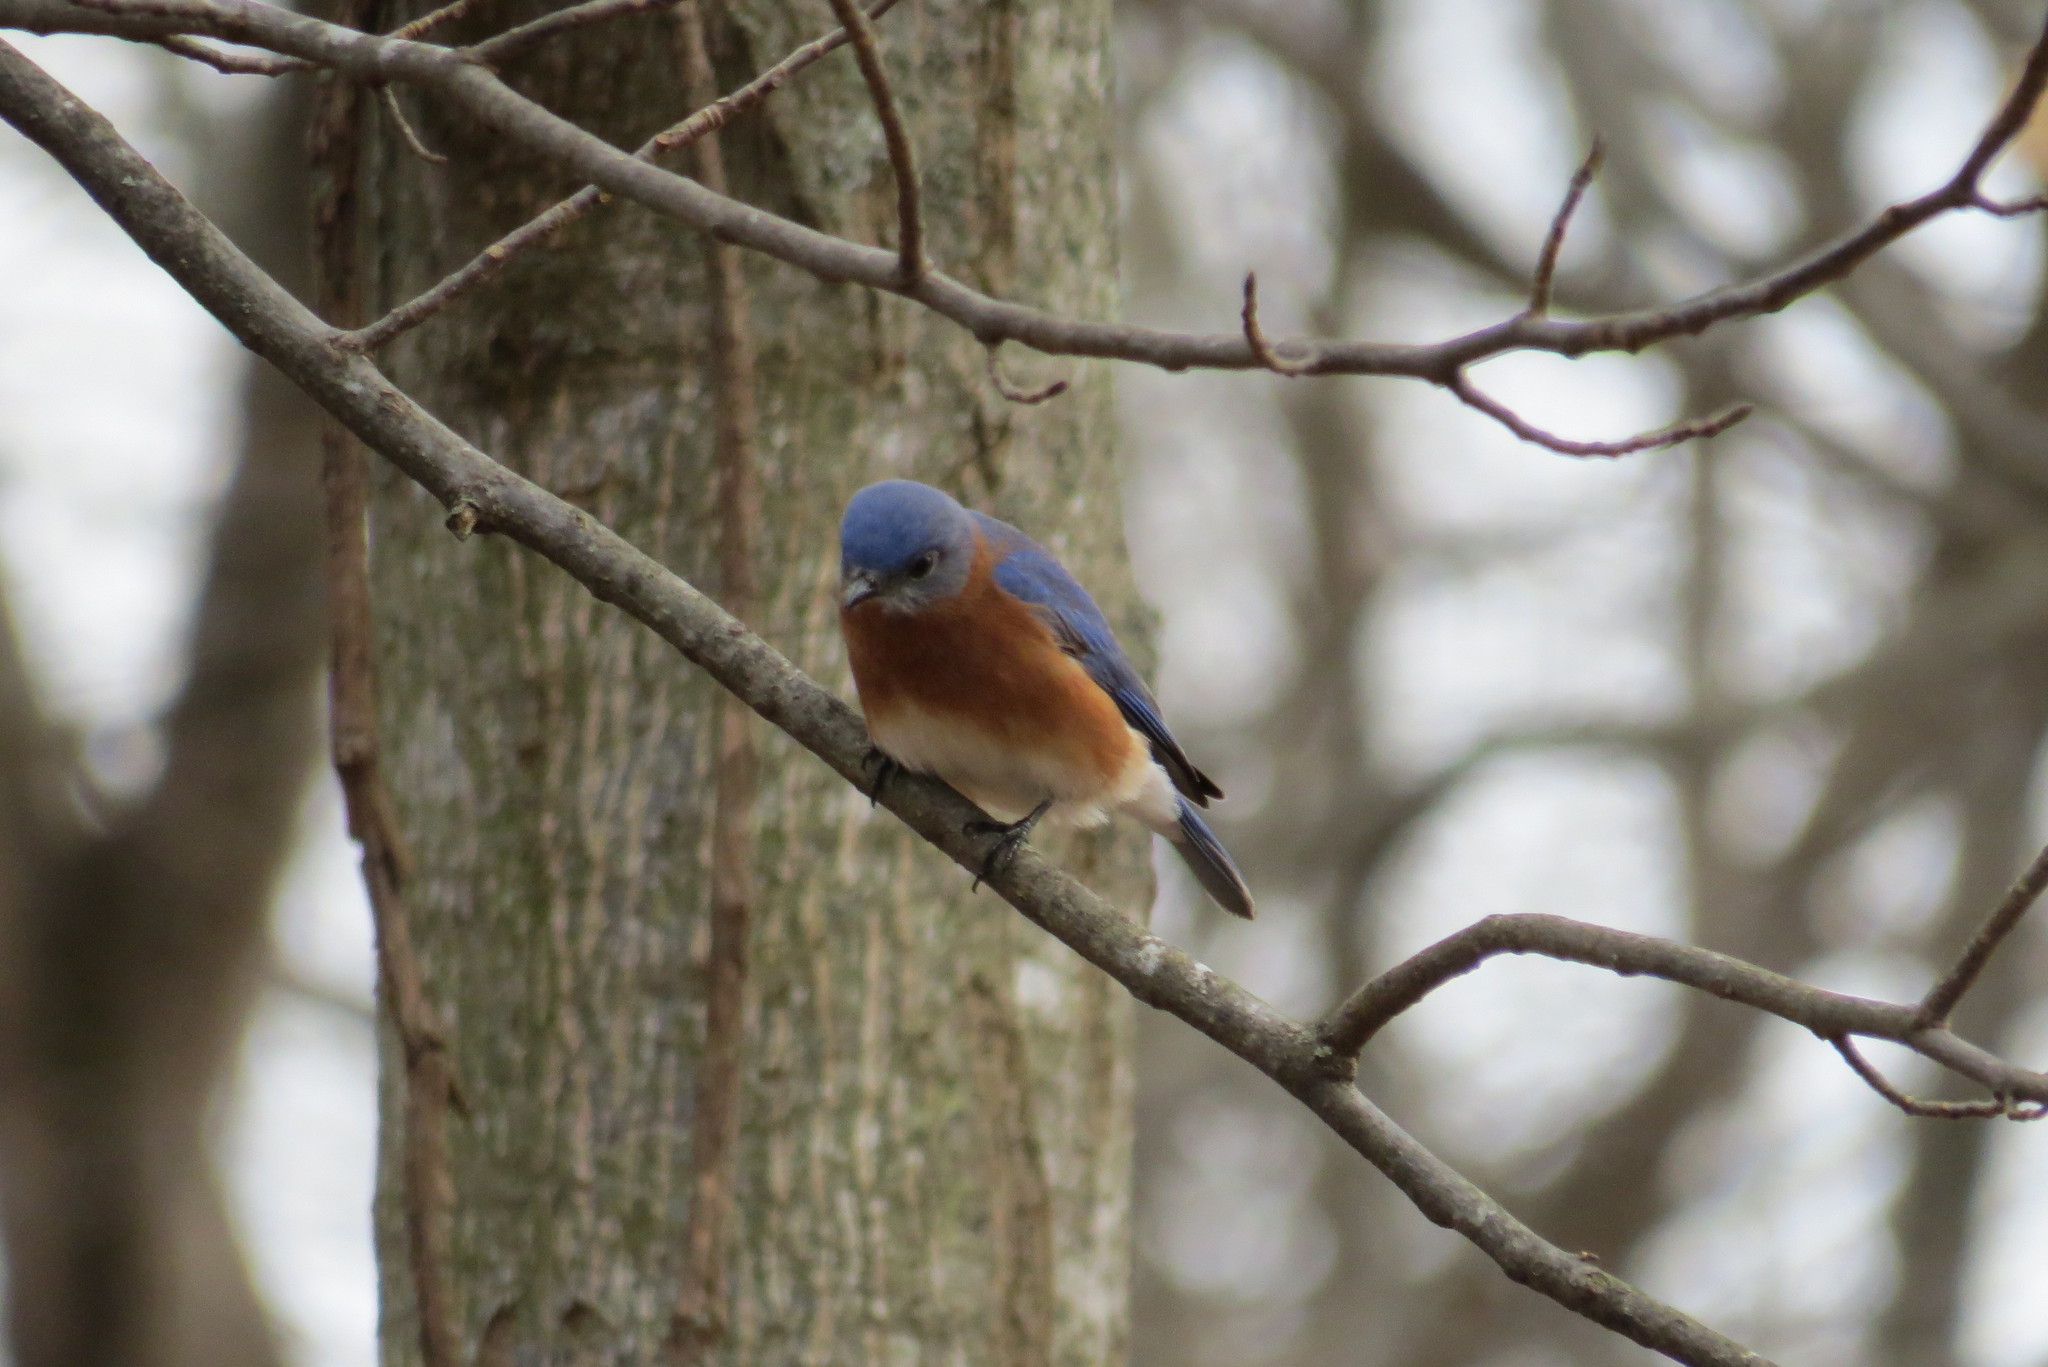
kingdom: Animalia
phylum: Chordata
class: Aves
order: Passeriformes
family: Turdidae
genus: Sialia
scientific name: Sialia sialis
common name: Eastern bluebird
